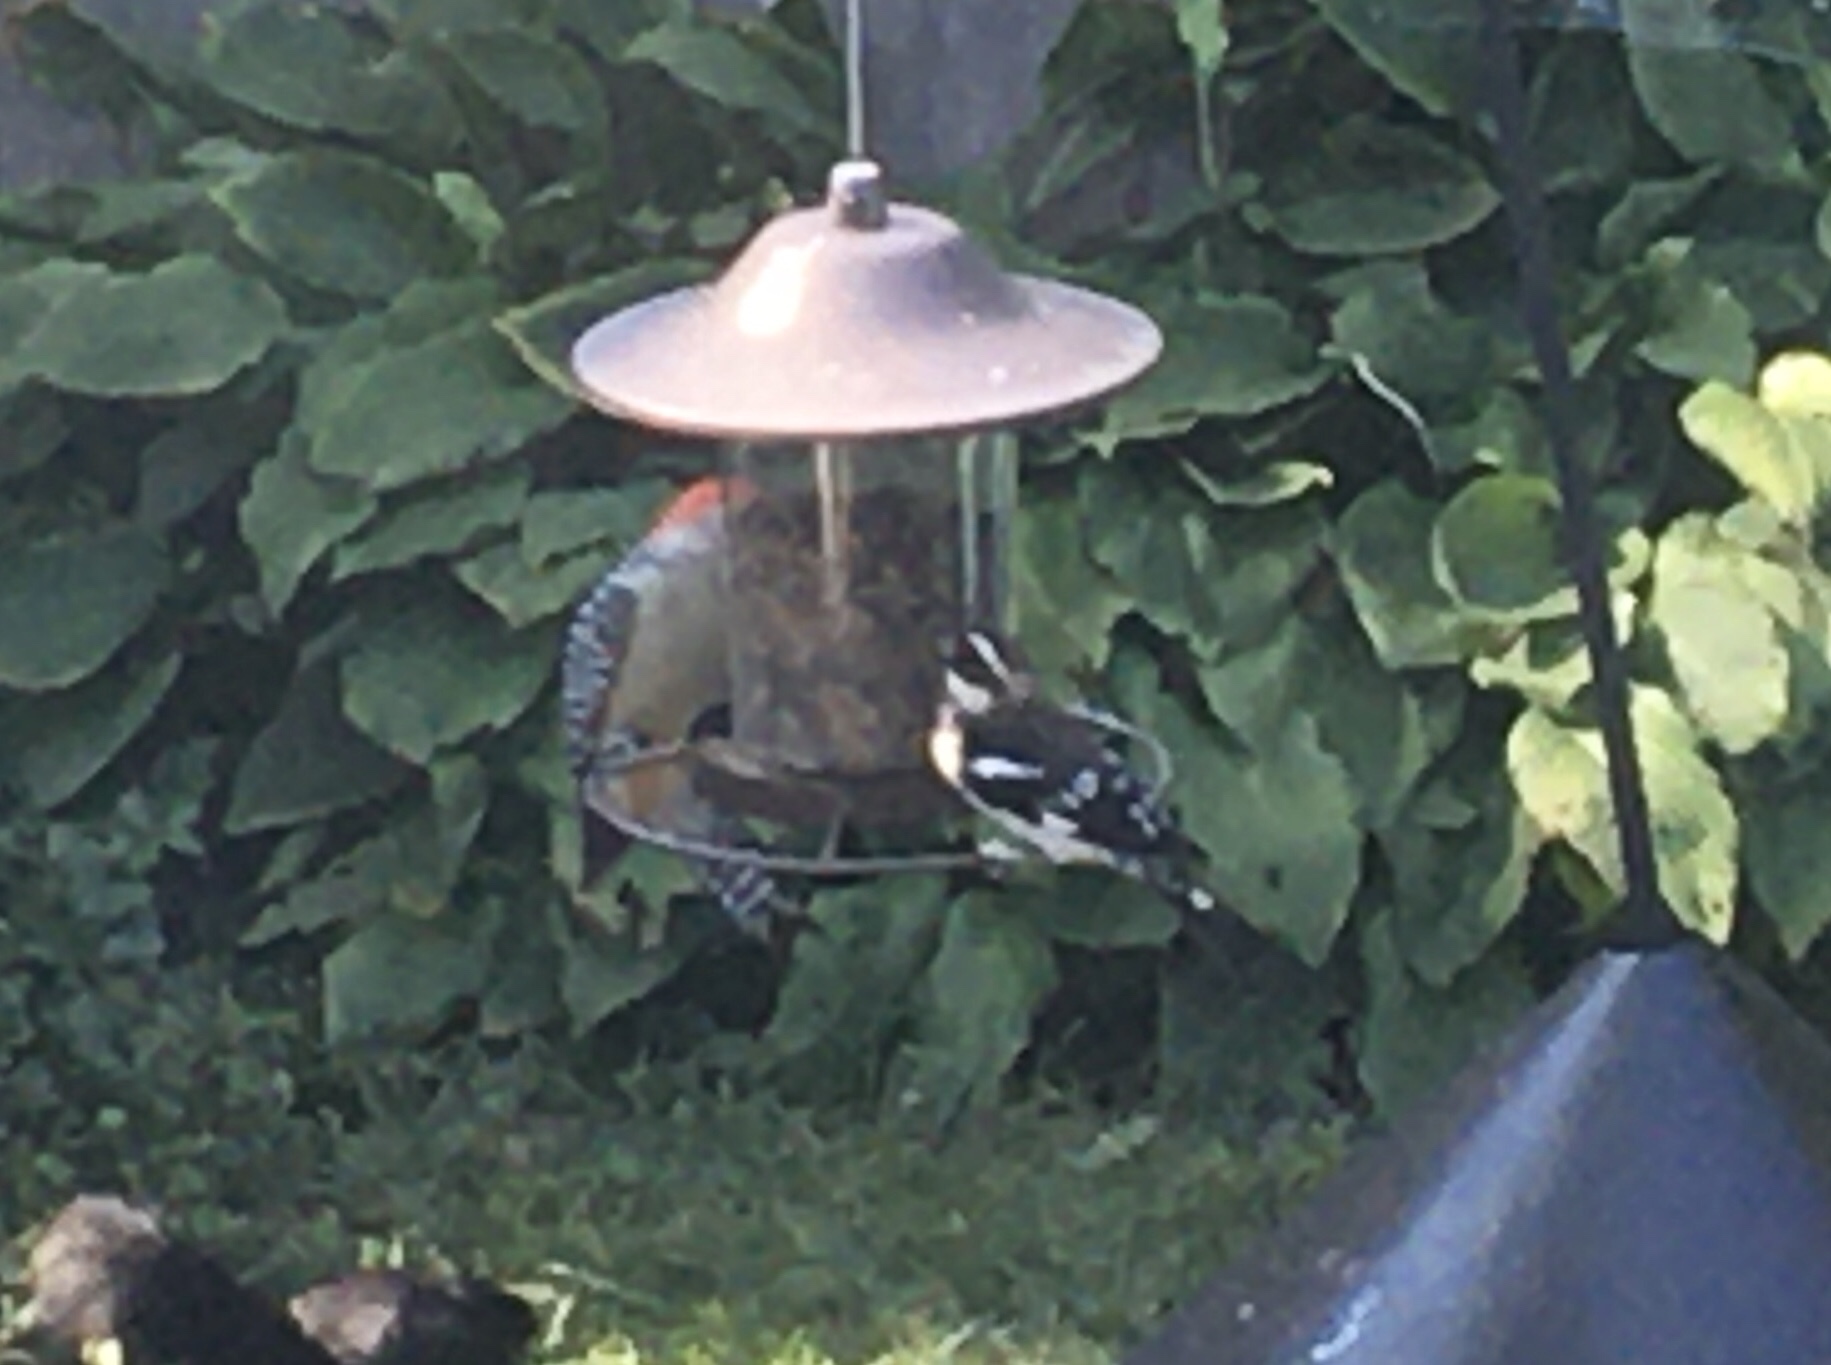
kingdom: Animalia
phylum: Chordata
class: Aves
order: Passeriformes
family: Cardinalidae
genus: Pheucticus
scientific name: Pheucticus ludovicianus
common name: Rose-breasted grosbeak
